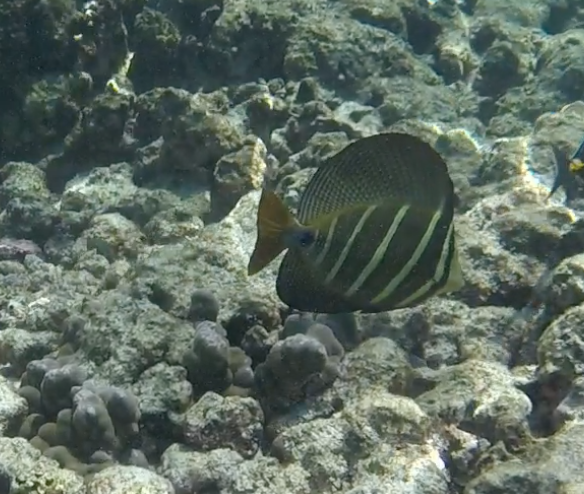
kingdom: Animalia
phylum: Chordata
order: Perciformes
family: Acanthuridae
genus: Zebrasoma
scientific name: Zebrasoma veliferum
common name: Sailfin surgeonfish
